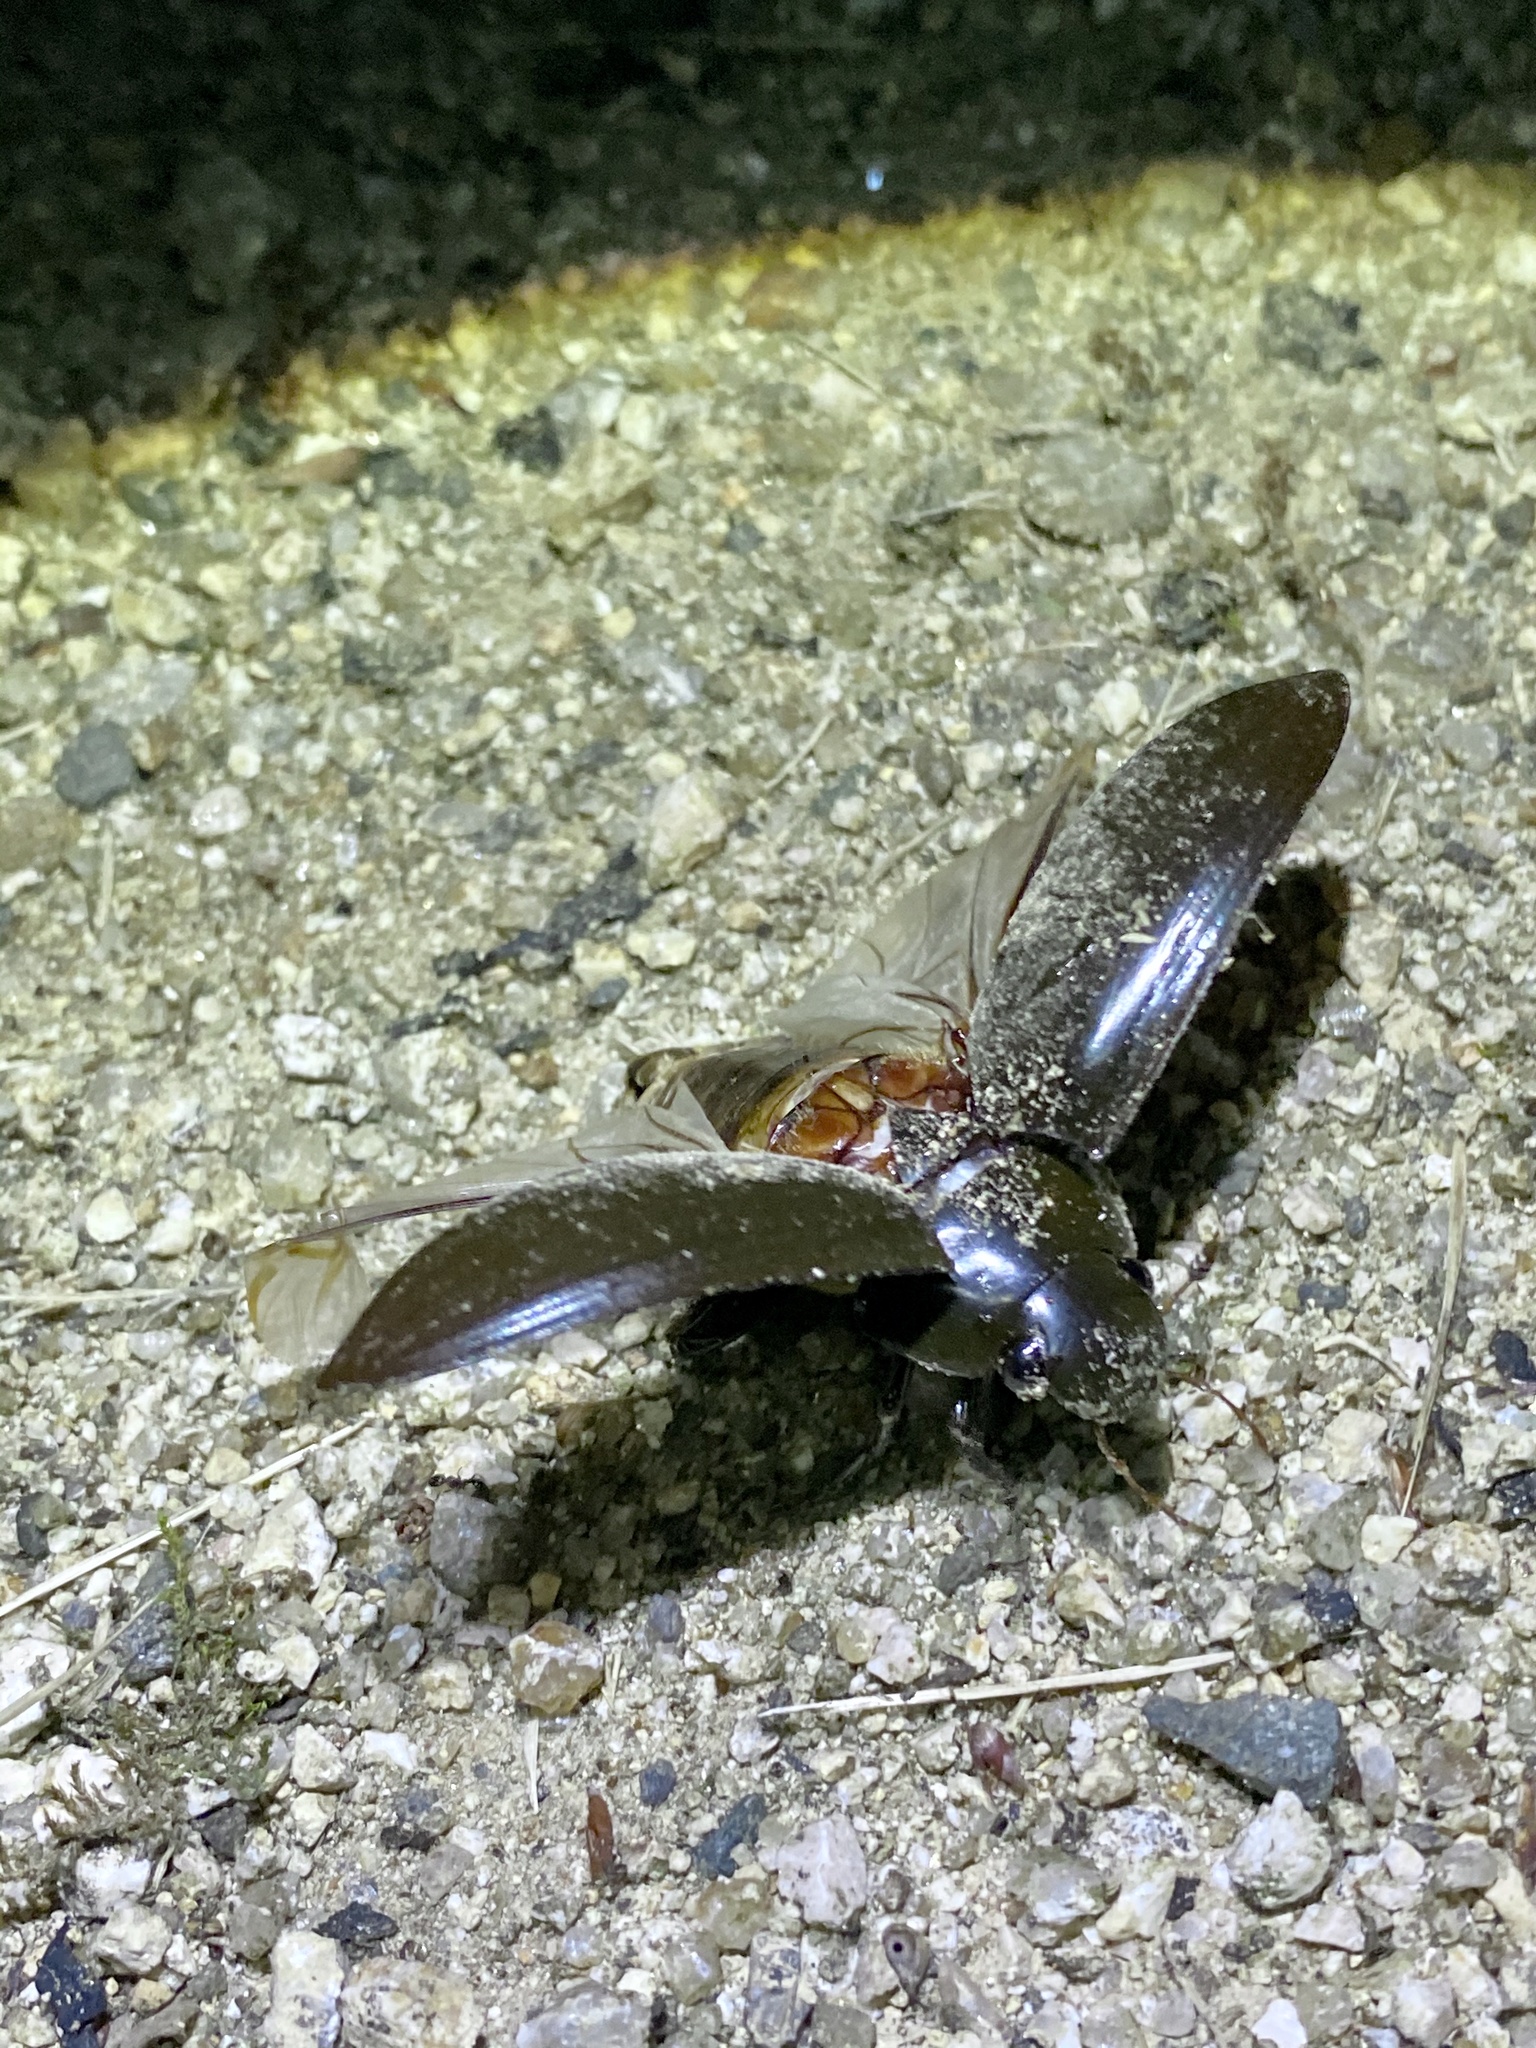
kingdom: Animalia
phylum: Arthropoda
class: Insecta
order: Coleoptera
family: Hydrophilidae
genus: Hydrophilus
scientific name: Hydrophilus acuminatus
